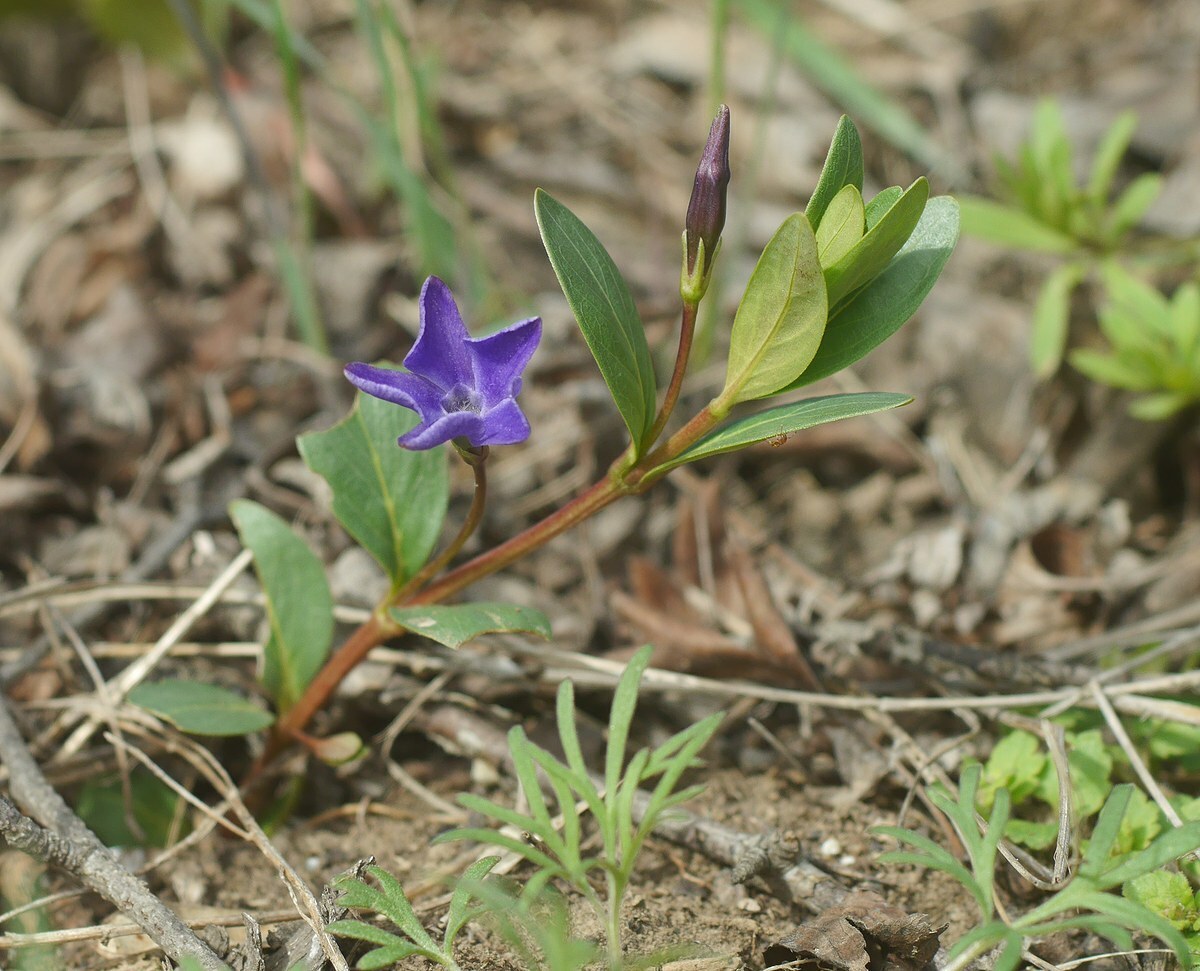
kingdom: Plantae
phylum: Tracheophyta
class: Magnoliopsida
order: Gentianales
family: Apocynaceae
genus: Vinca
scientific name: Vinca herbacea
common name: Herbaceous periwinkle
